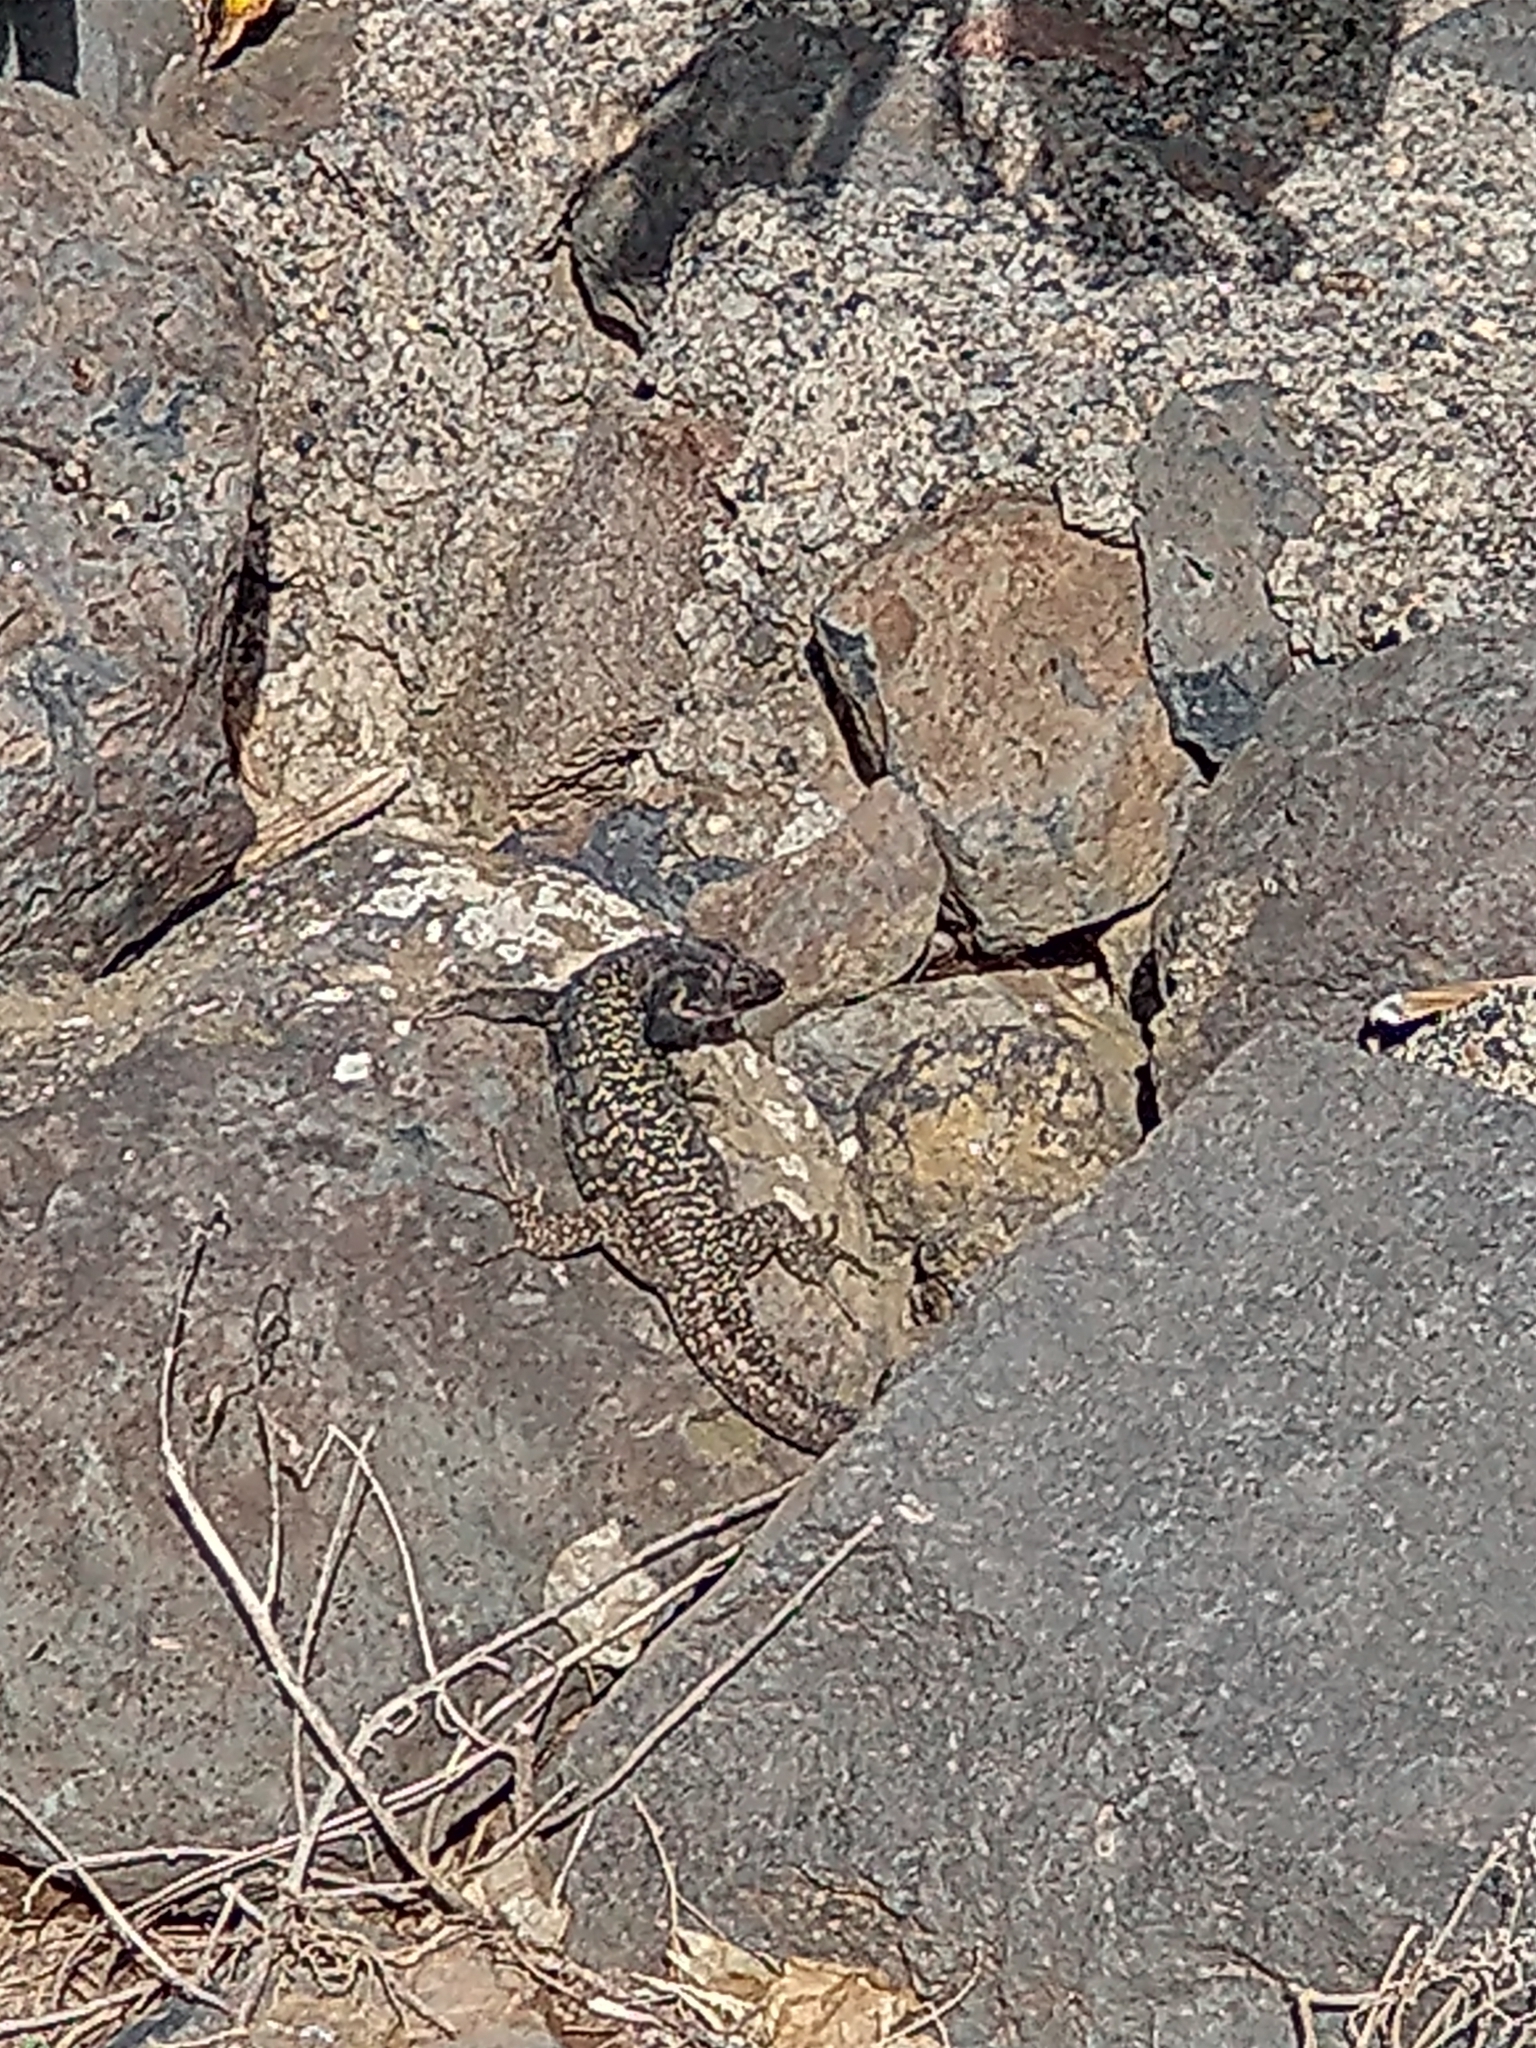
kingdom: Animalia
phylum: Chordata
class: Squamata
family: Lacertidae
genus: Gallotia
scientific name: Gallotia galloti
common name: Gallot's lizard
